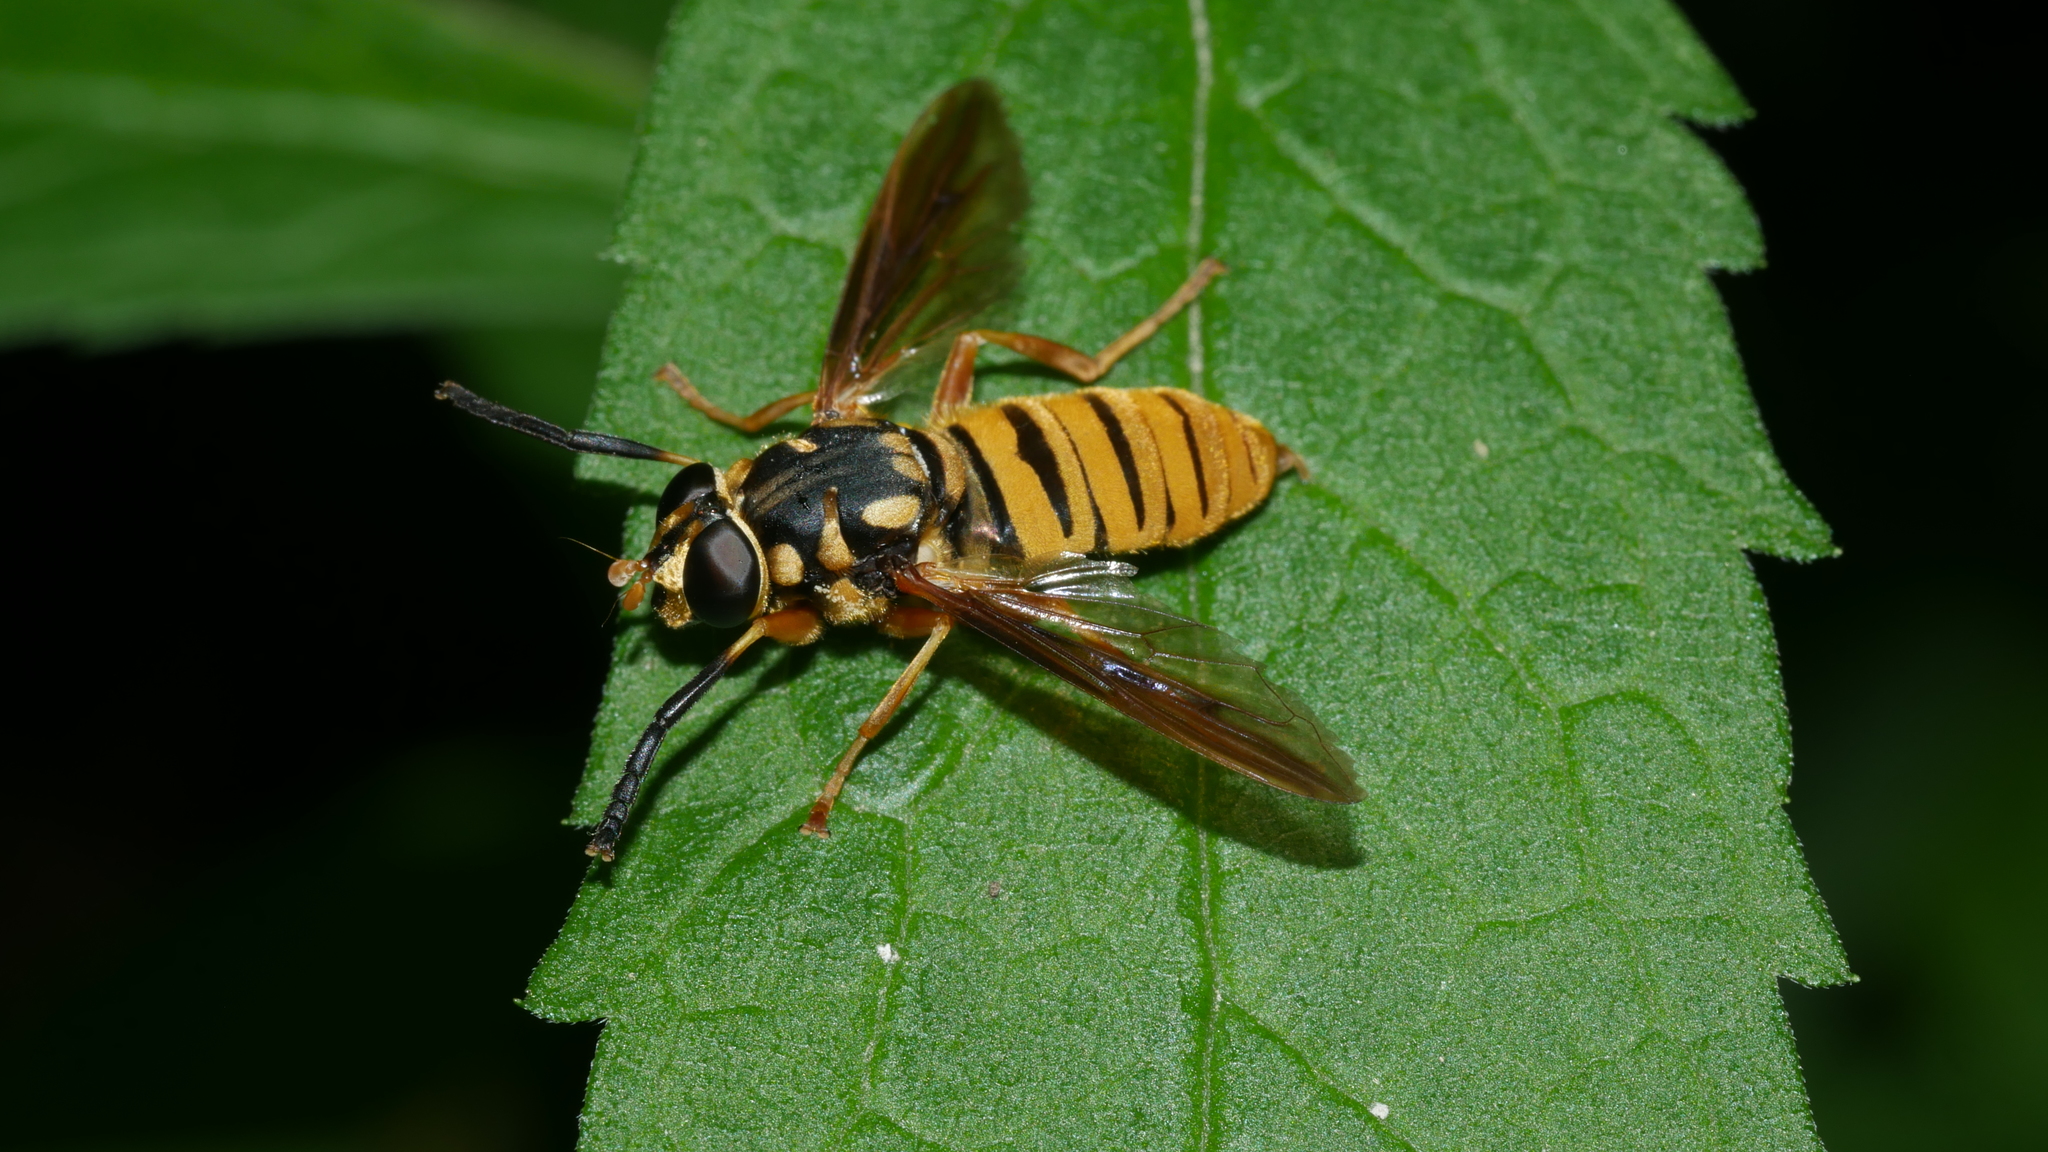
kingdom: Animalia
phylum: Arthropoda
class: Insecta
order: Diptera
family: Syrphidae
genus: Temnostoma
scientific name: Temnostoma daochum
